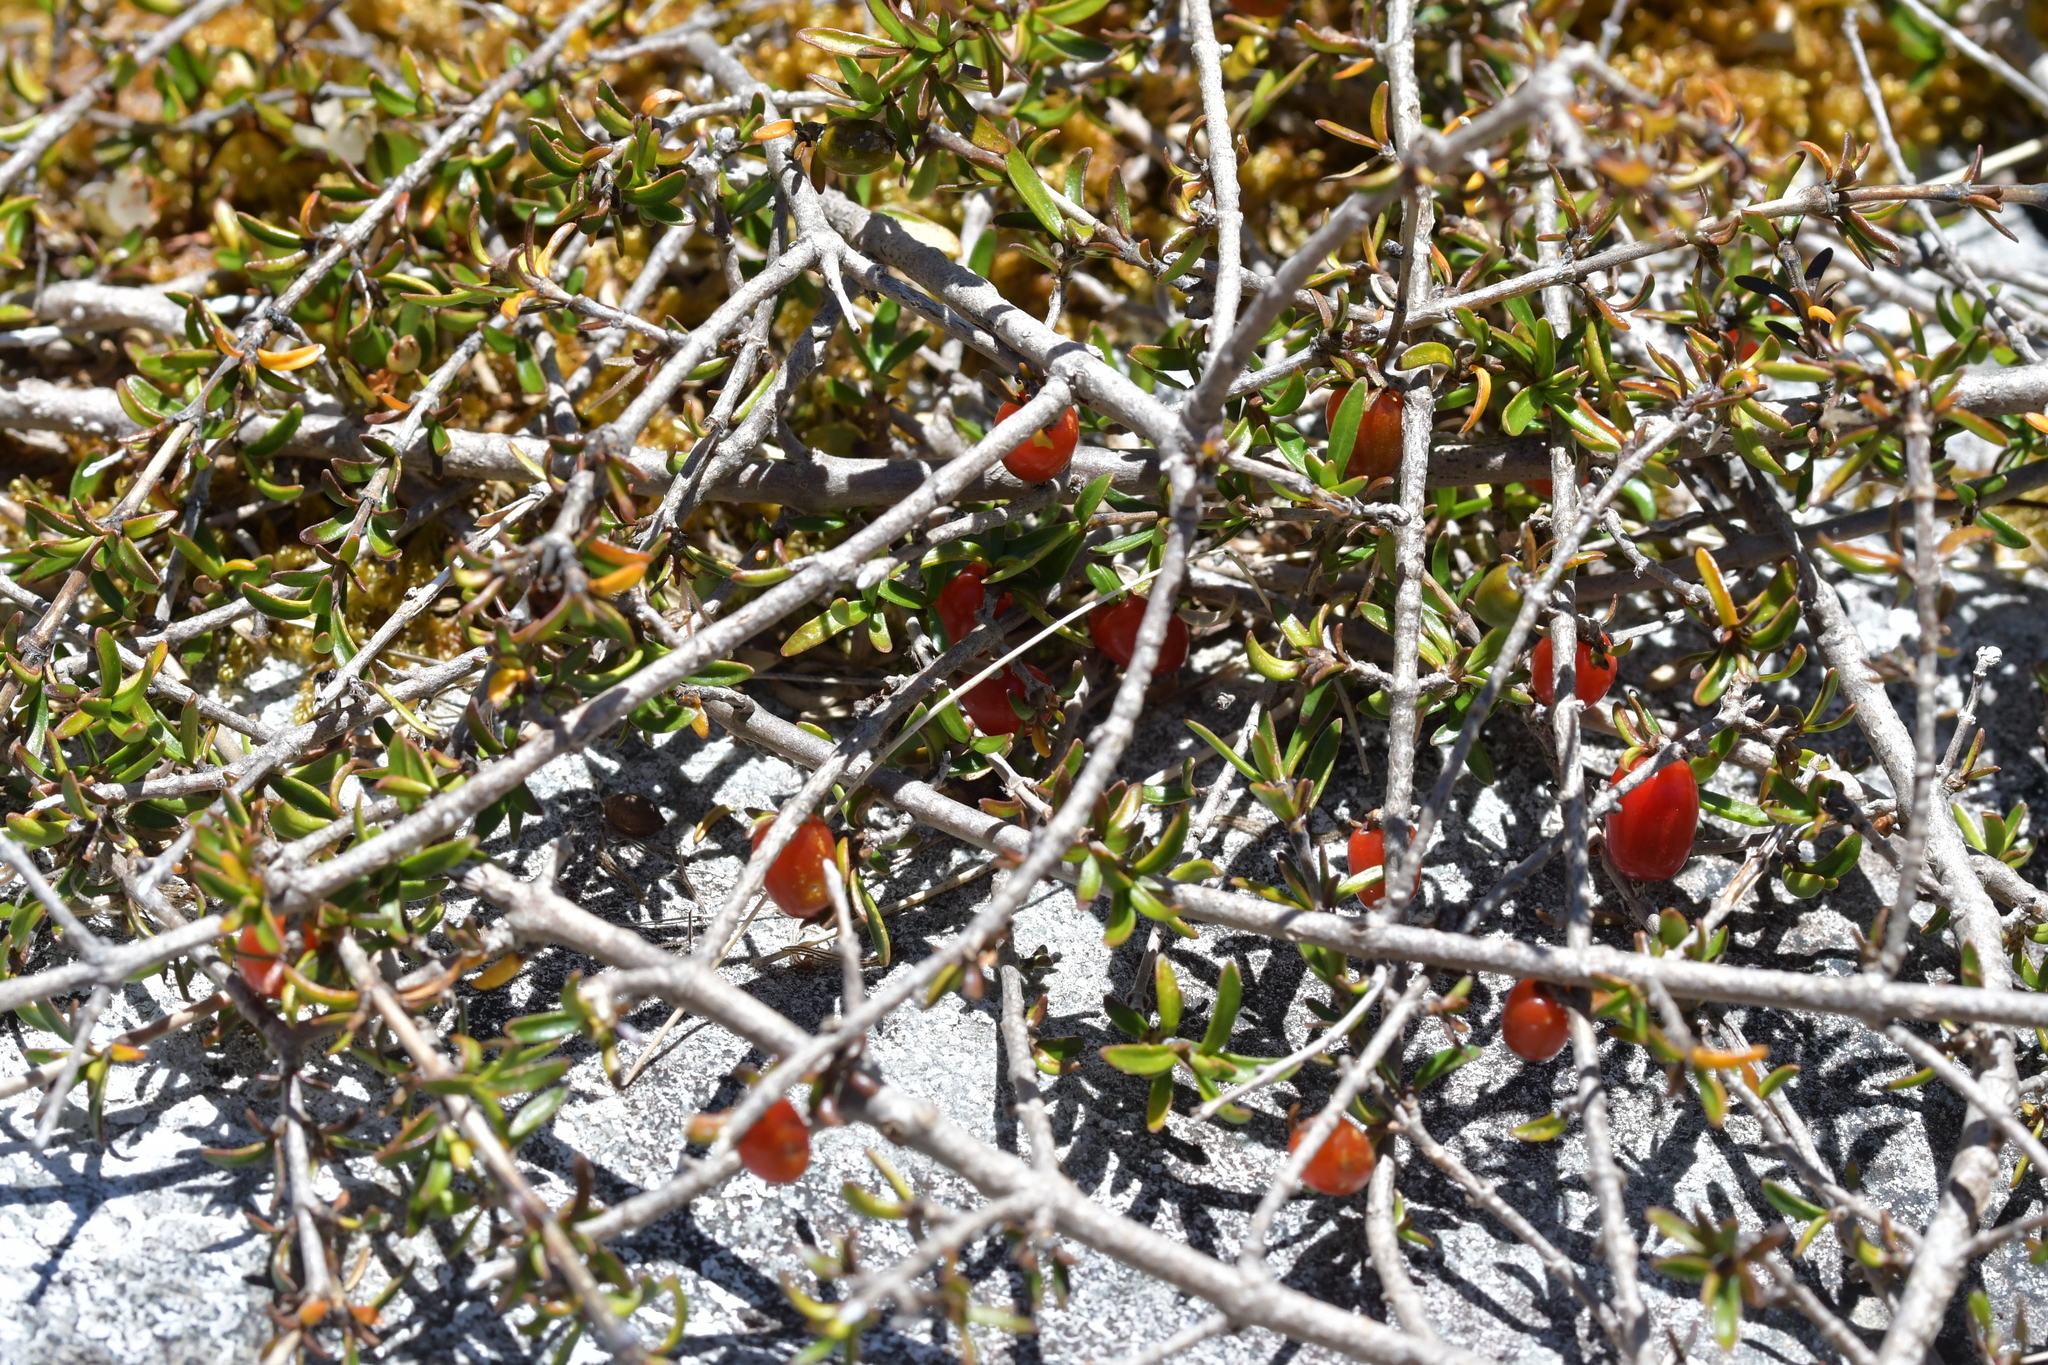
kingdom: Plantae
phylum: Tracheophyta
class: Magnoliopsida
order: Gentianales
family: Rubiaceae
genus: Coprosma
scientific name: Coprosma cheesemanii
